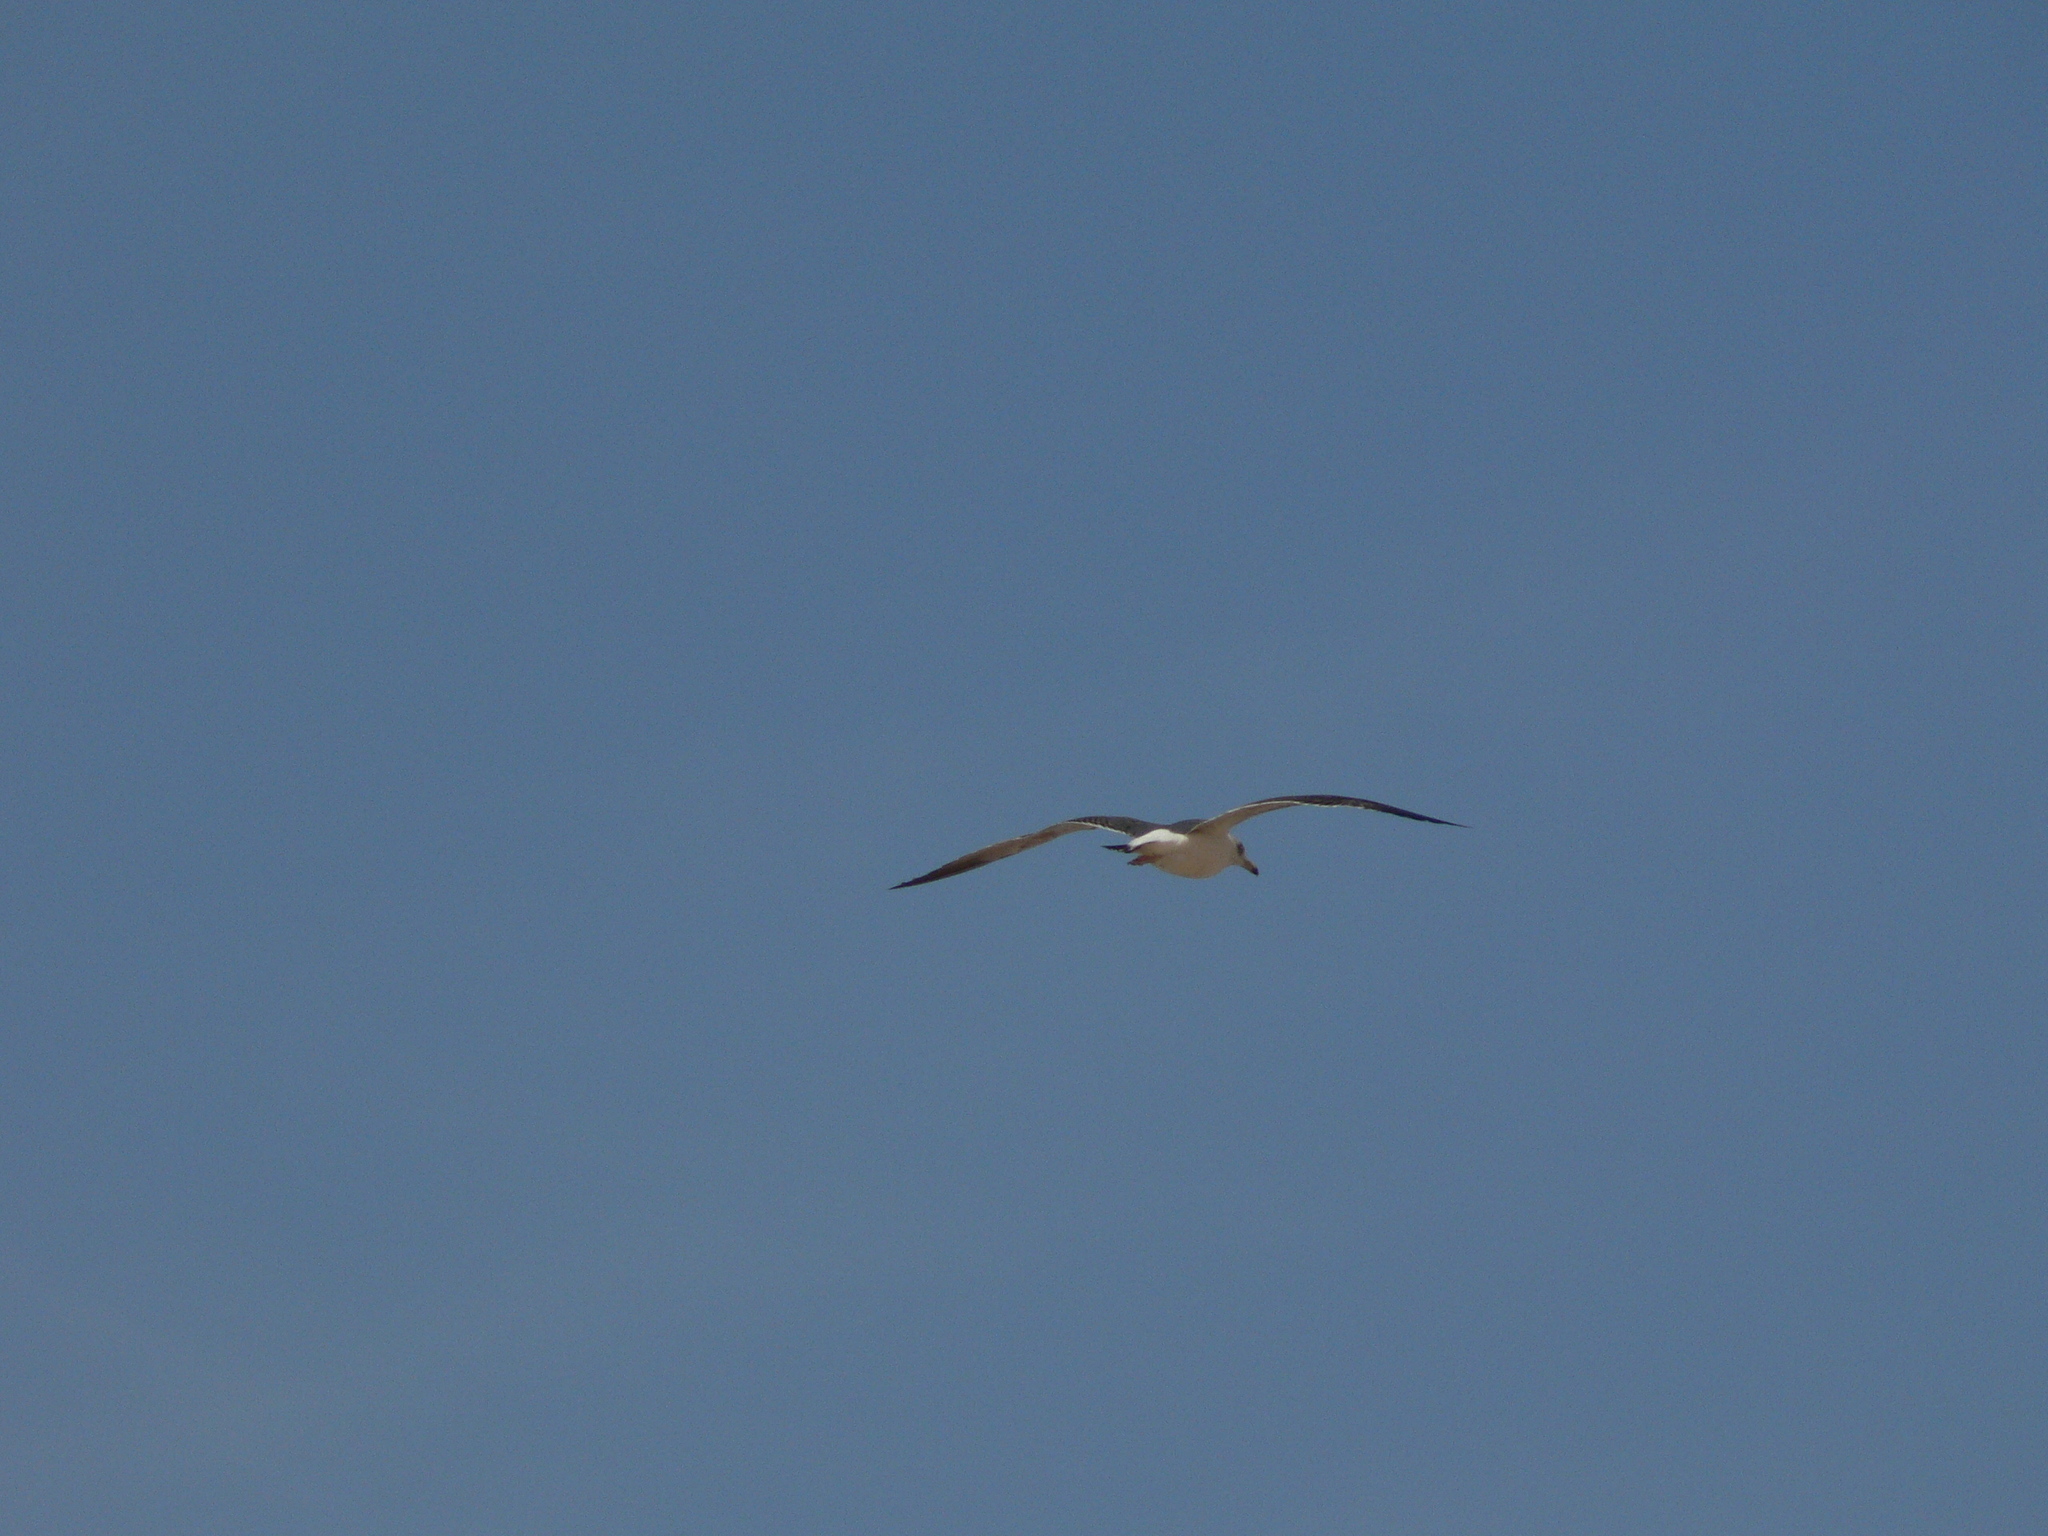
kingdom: Animalia
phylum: Chordata
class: Aves
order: Charadriiformes
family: Laridae
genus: Larus
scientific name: Larus fuscus
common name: Lesser black-backed gull
